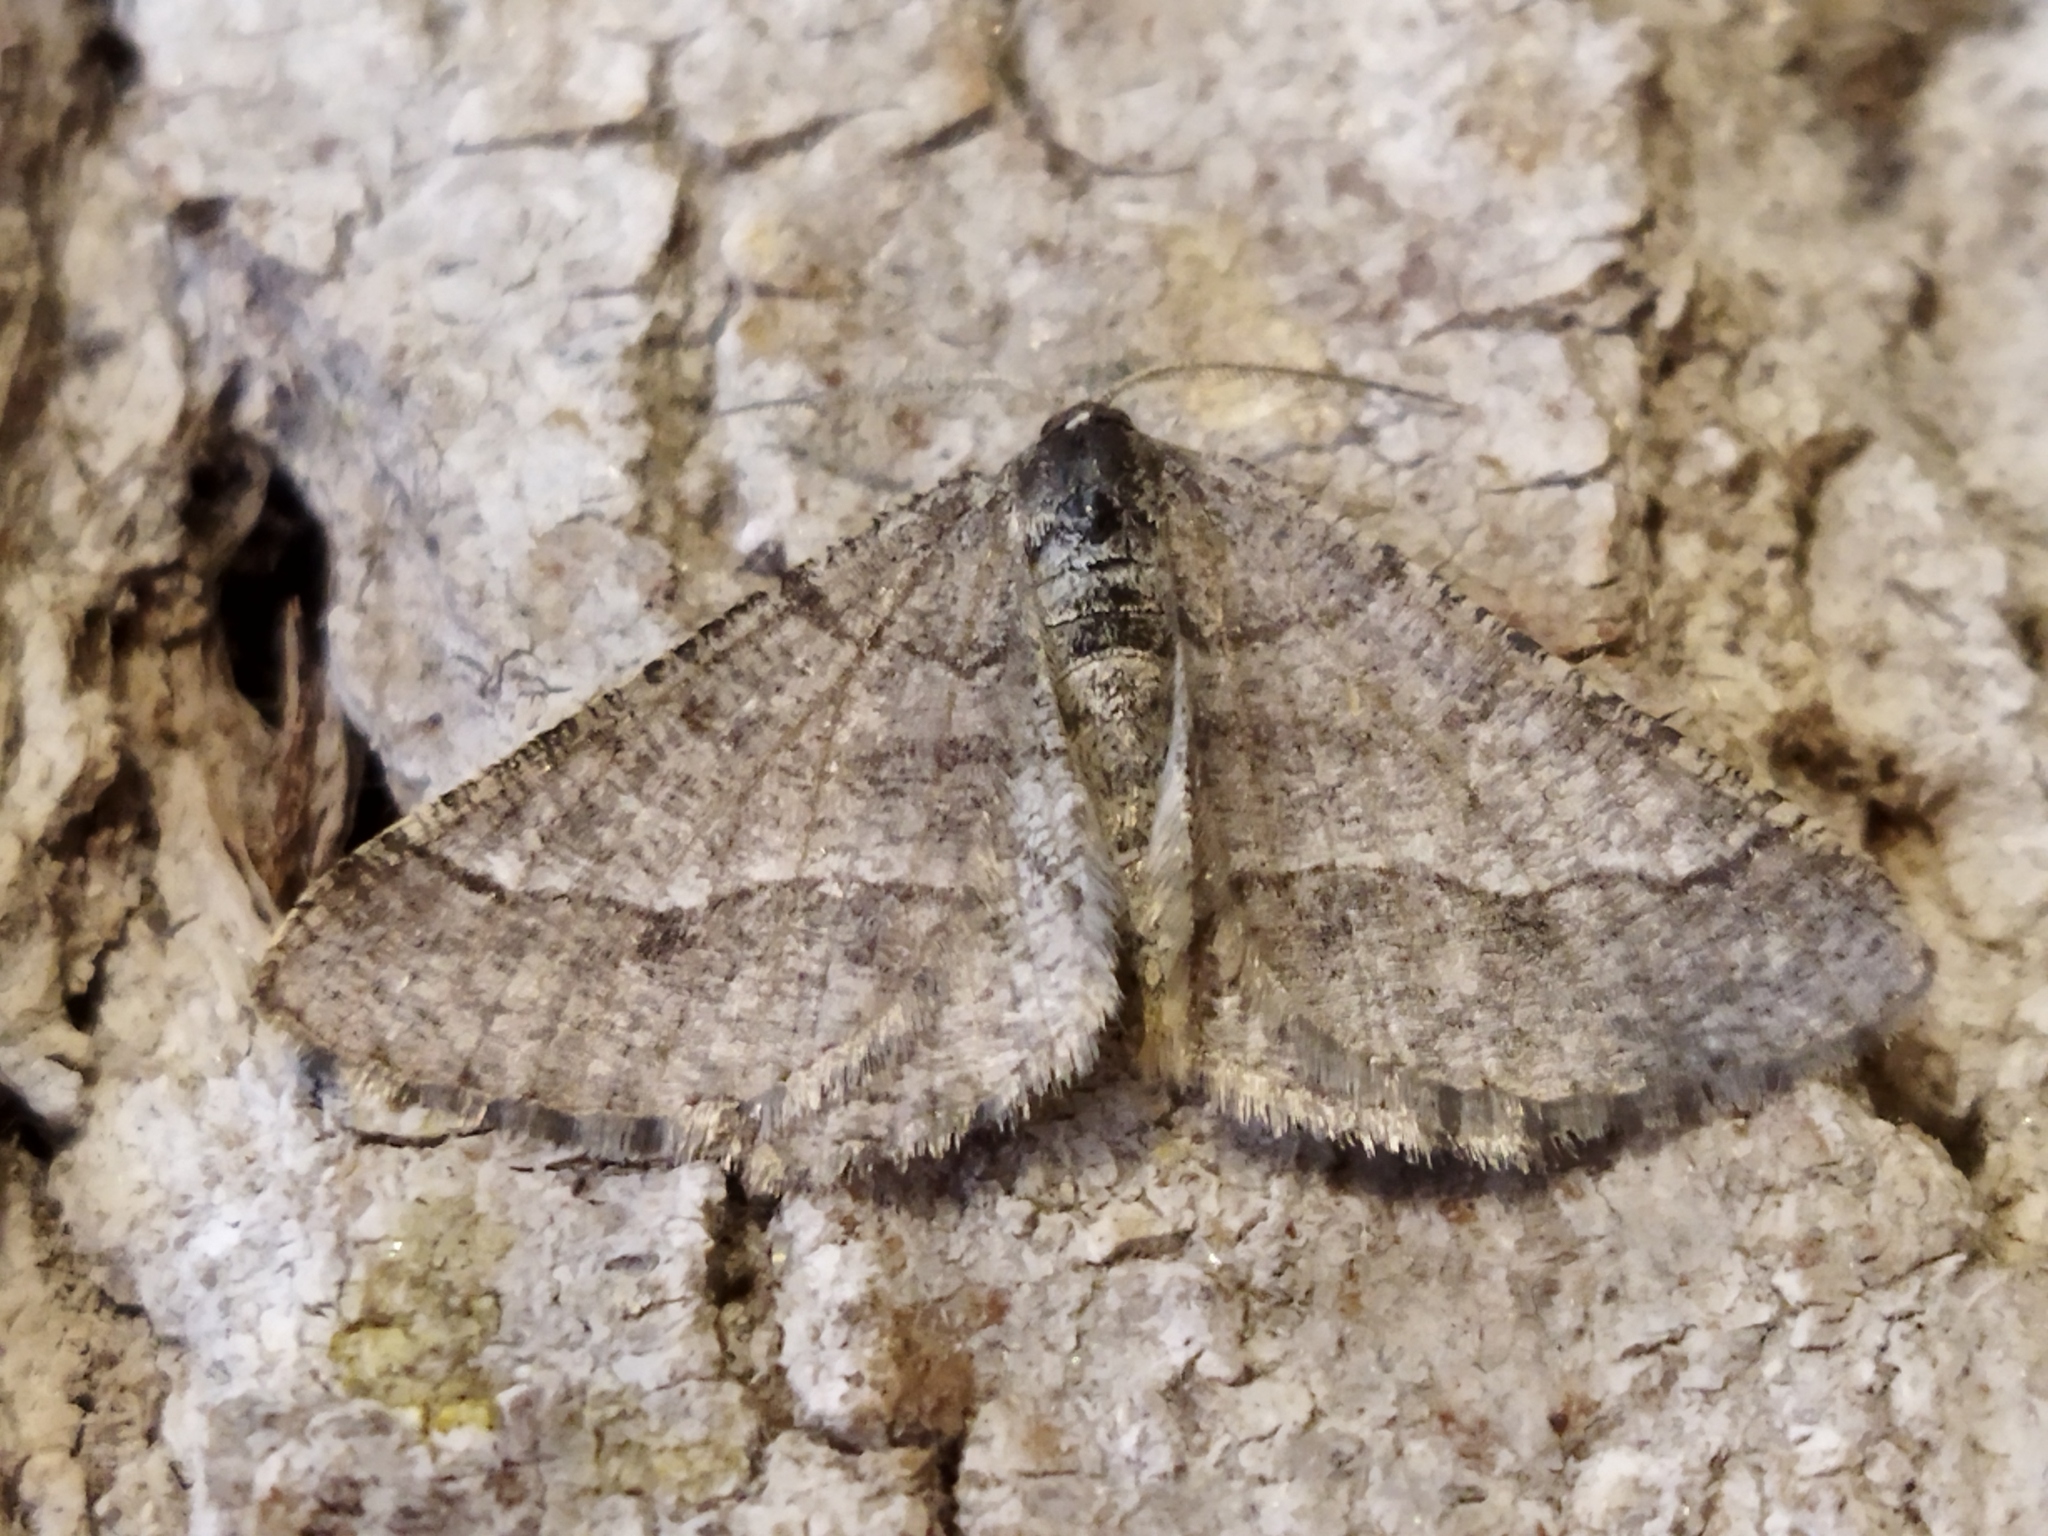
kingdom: Animalia
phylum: Arthropoda
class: Insecta
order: Lepidoptera
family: Geometridae
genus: Tephrina
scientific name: Tephrina murinaria
